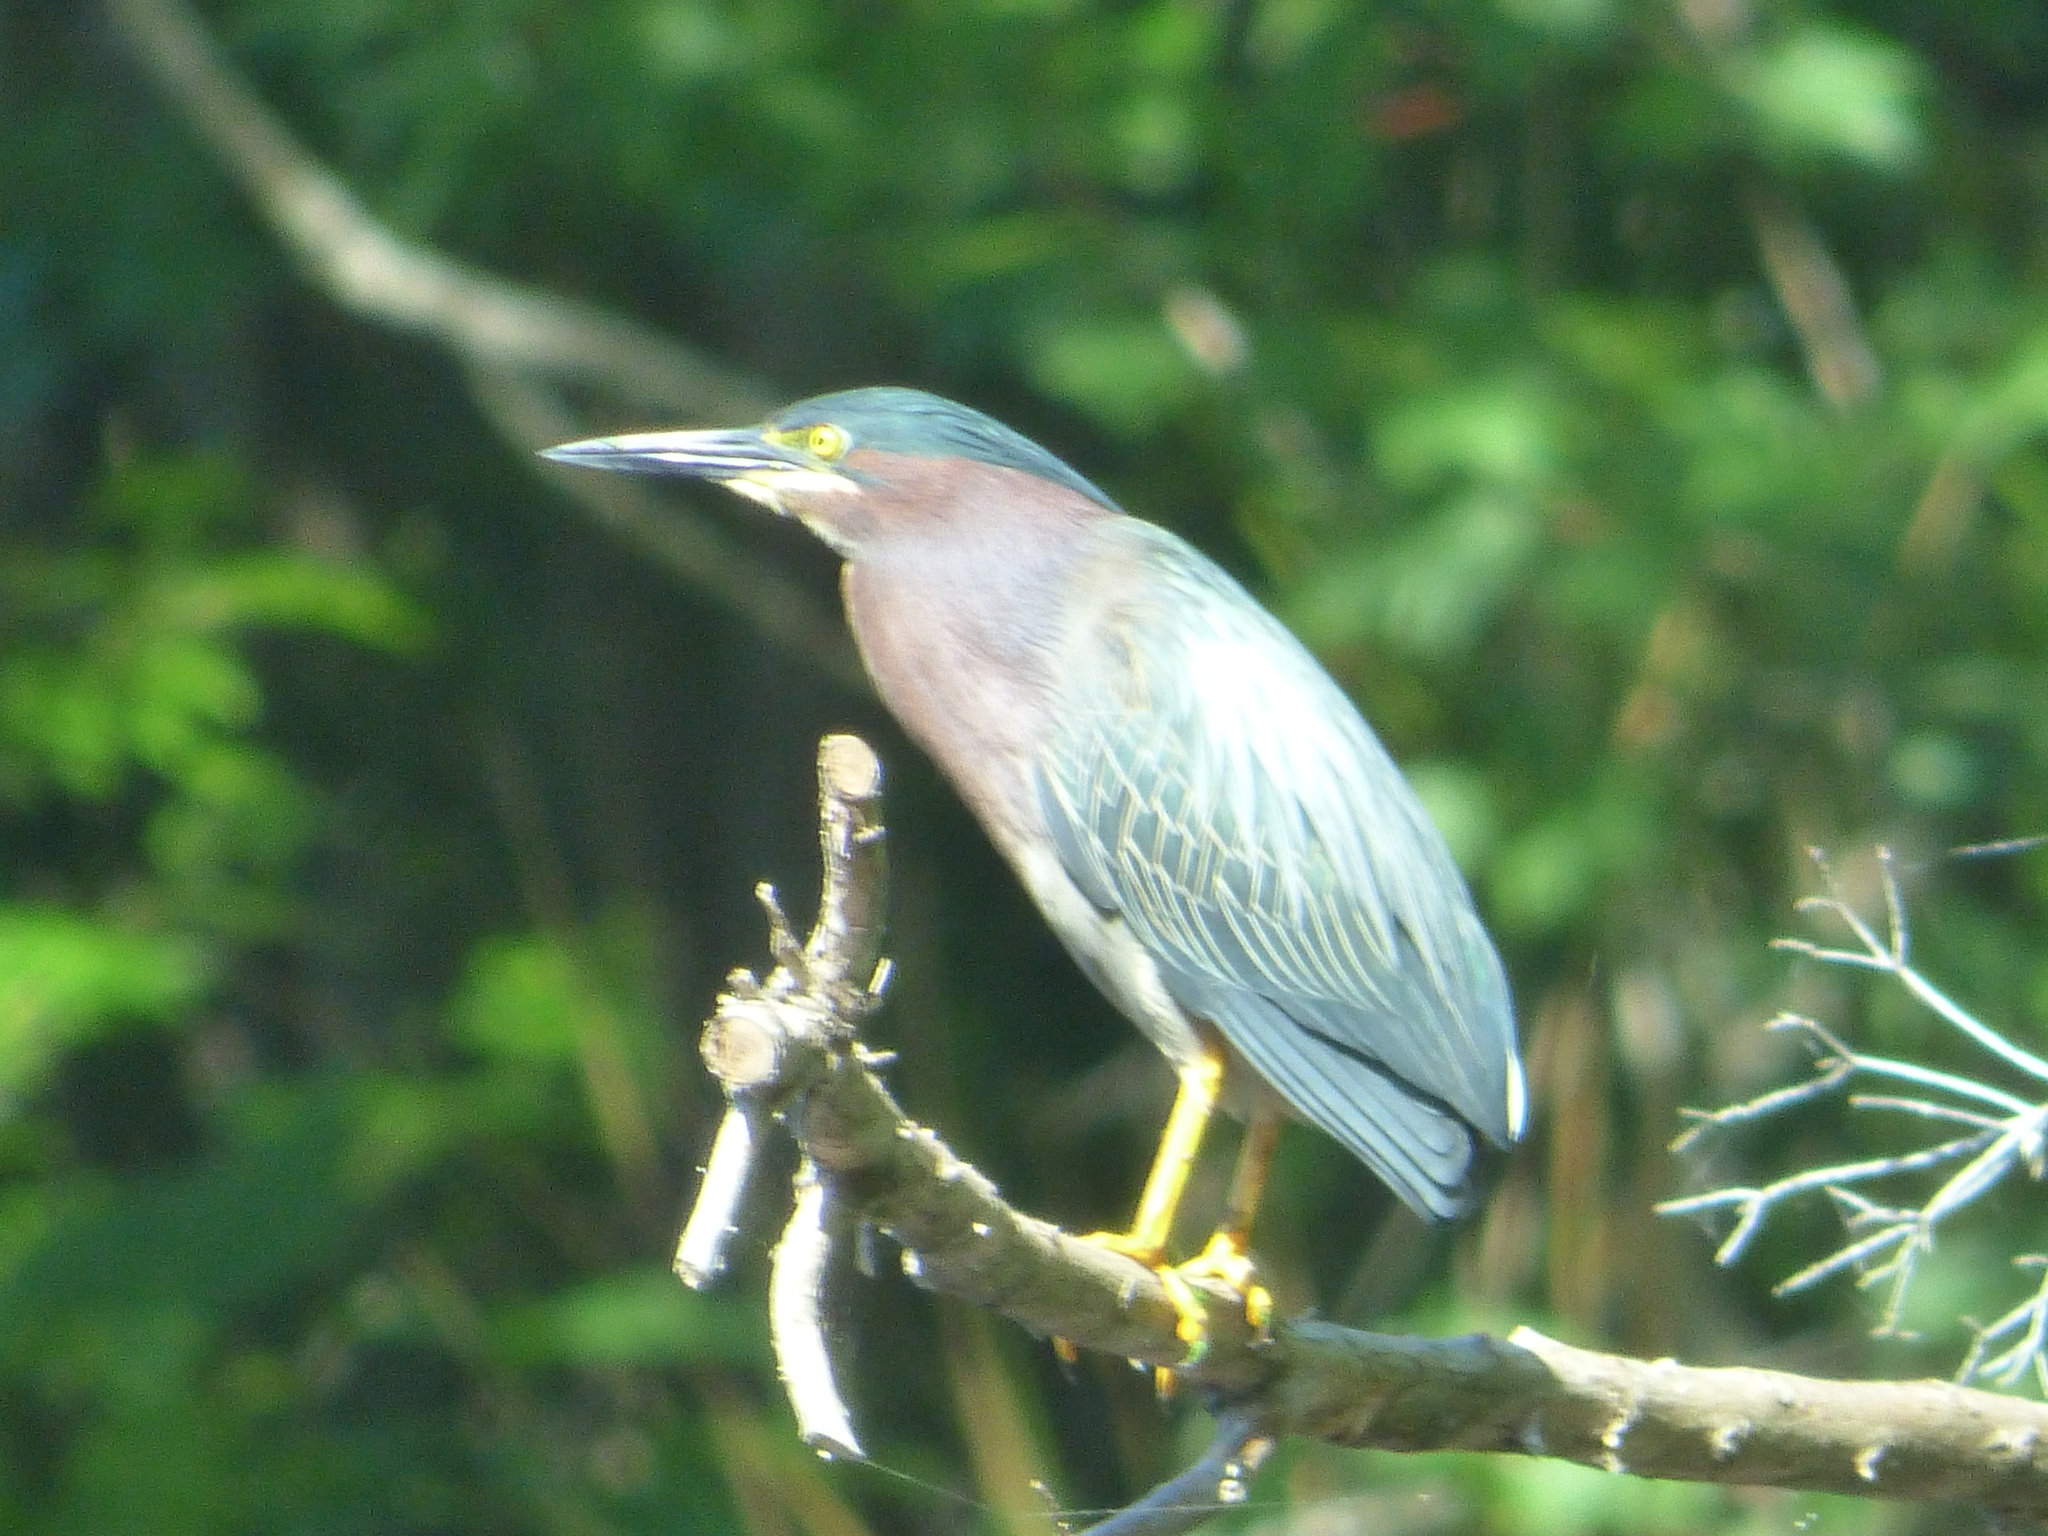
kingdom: Animalia
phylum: Chordata
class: Aves
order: Pelecaniformes
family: Ardeidae
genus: Butorides
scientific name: Butorides virescens
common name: Green heron
